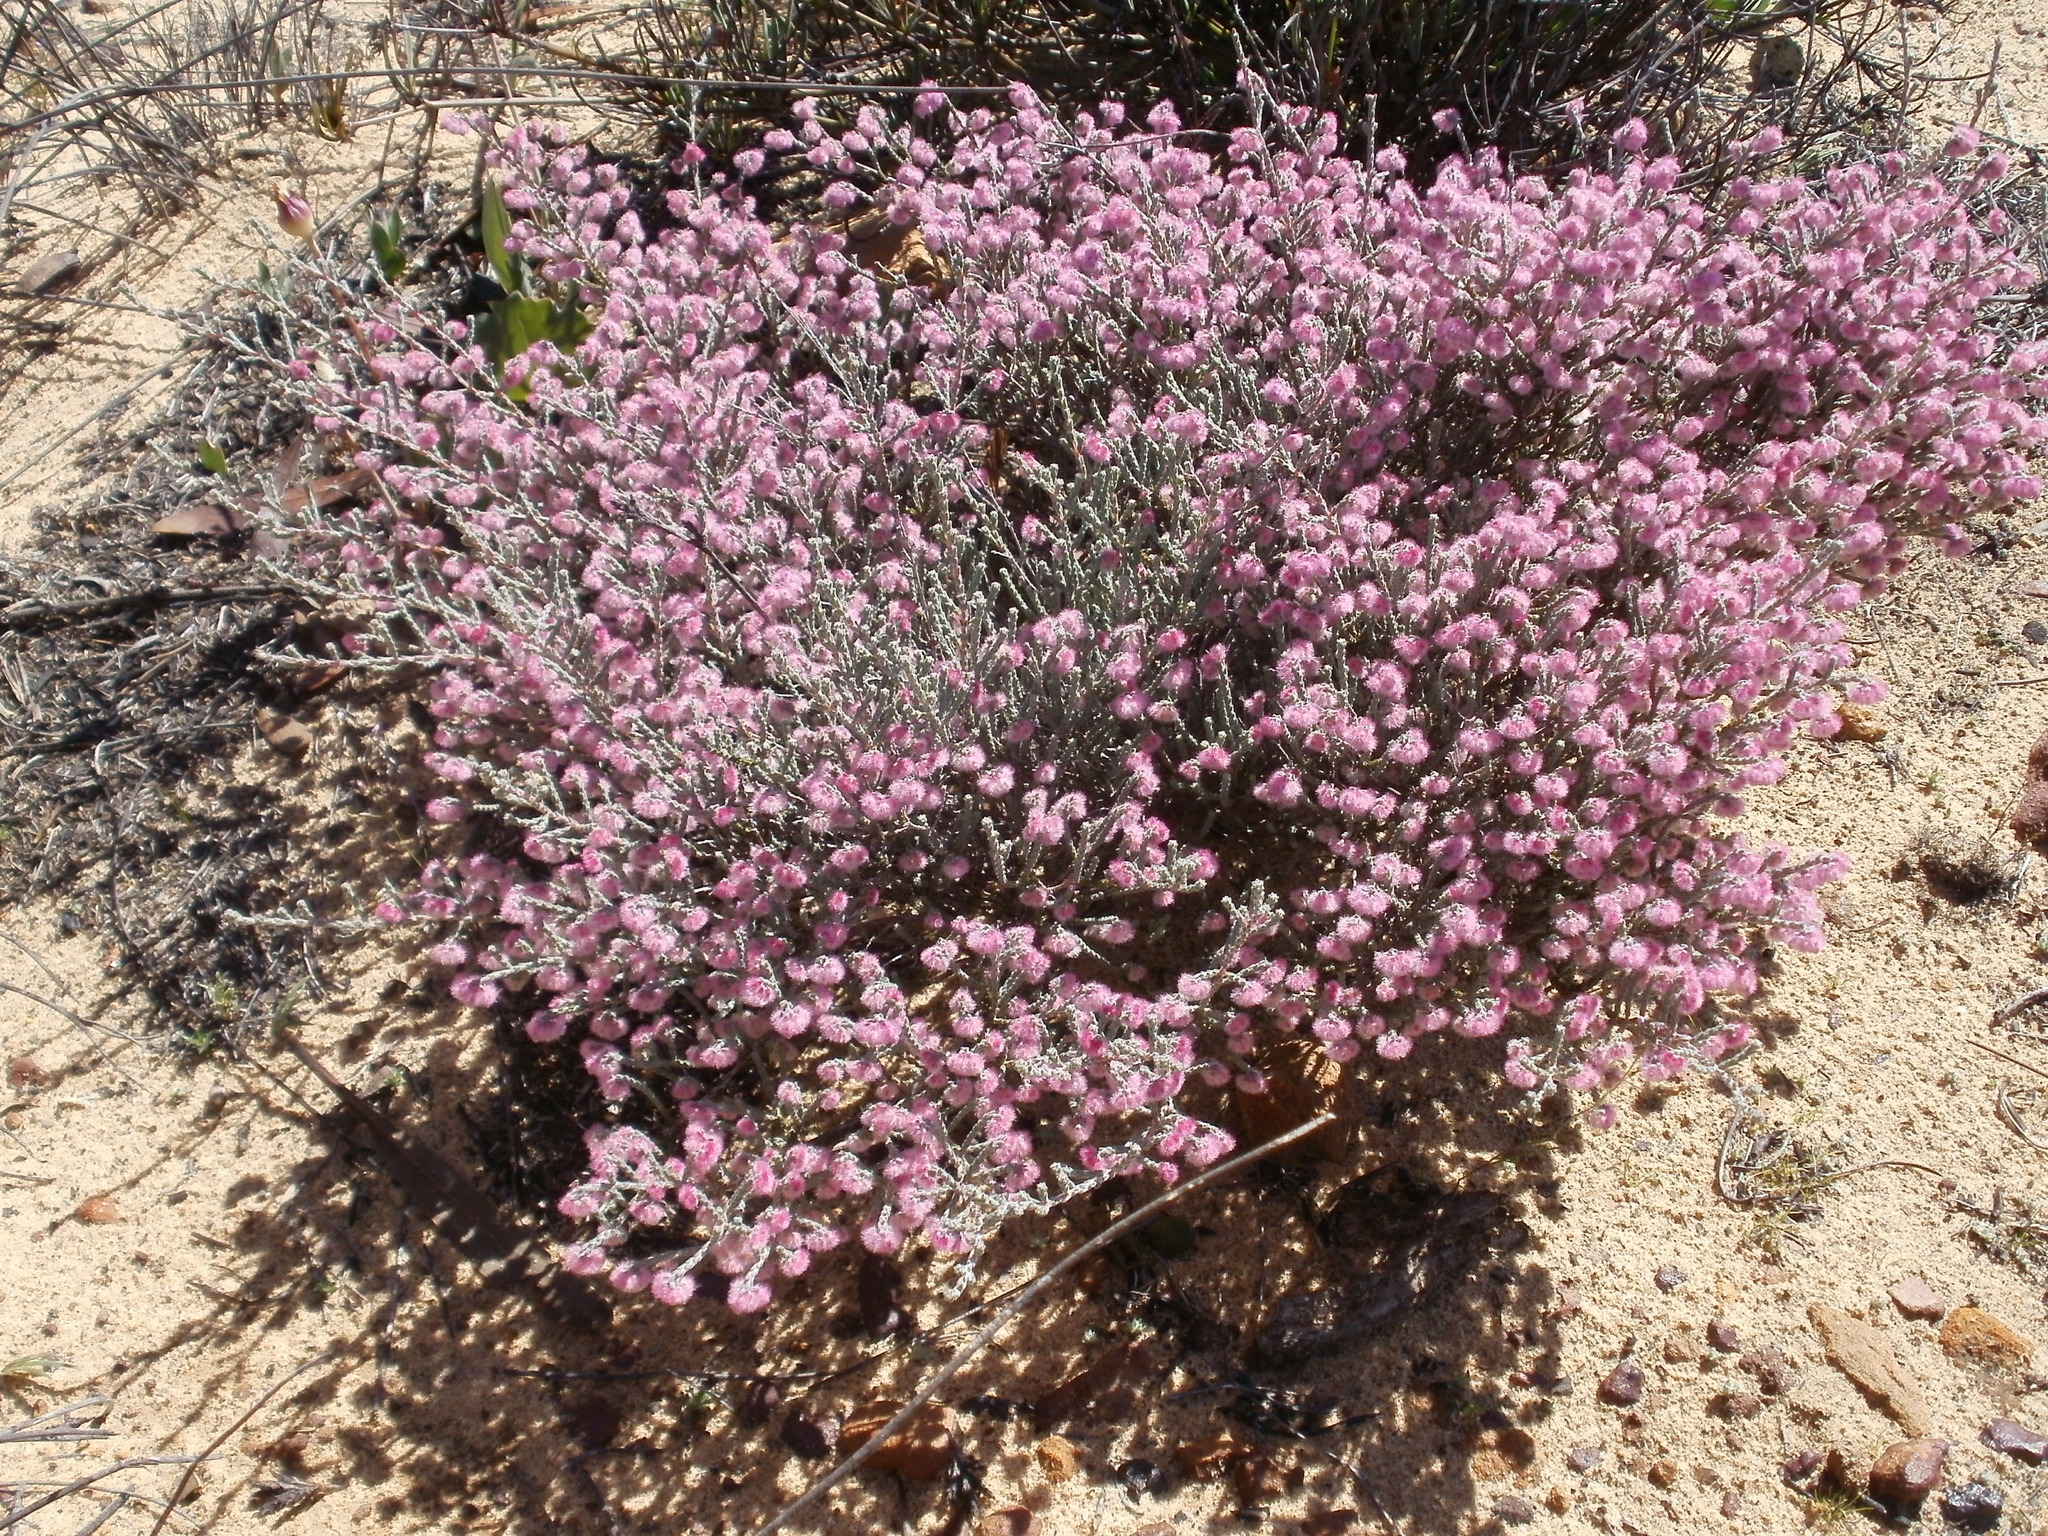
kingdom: Plantae
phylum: Tracheophyta
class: Magnoliopsida
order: Ericales
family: Ericaceae
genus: Erica
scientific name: Erica plumosa
